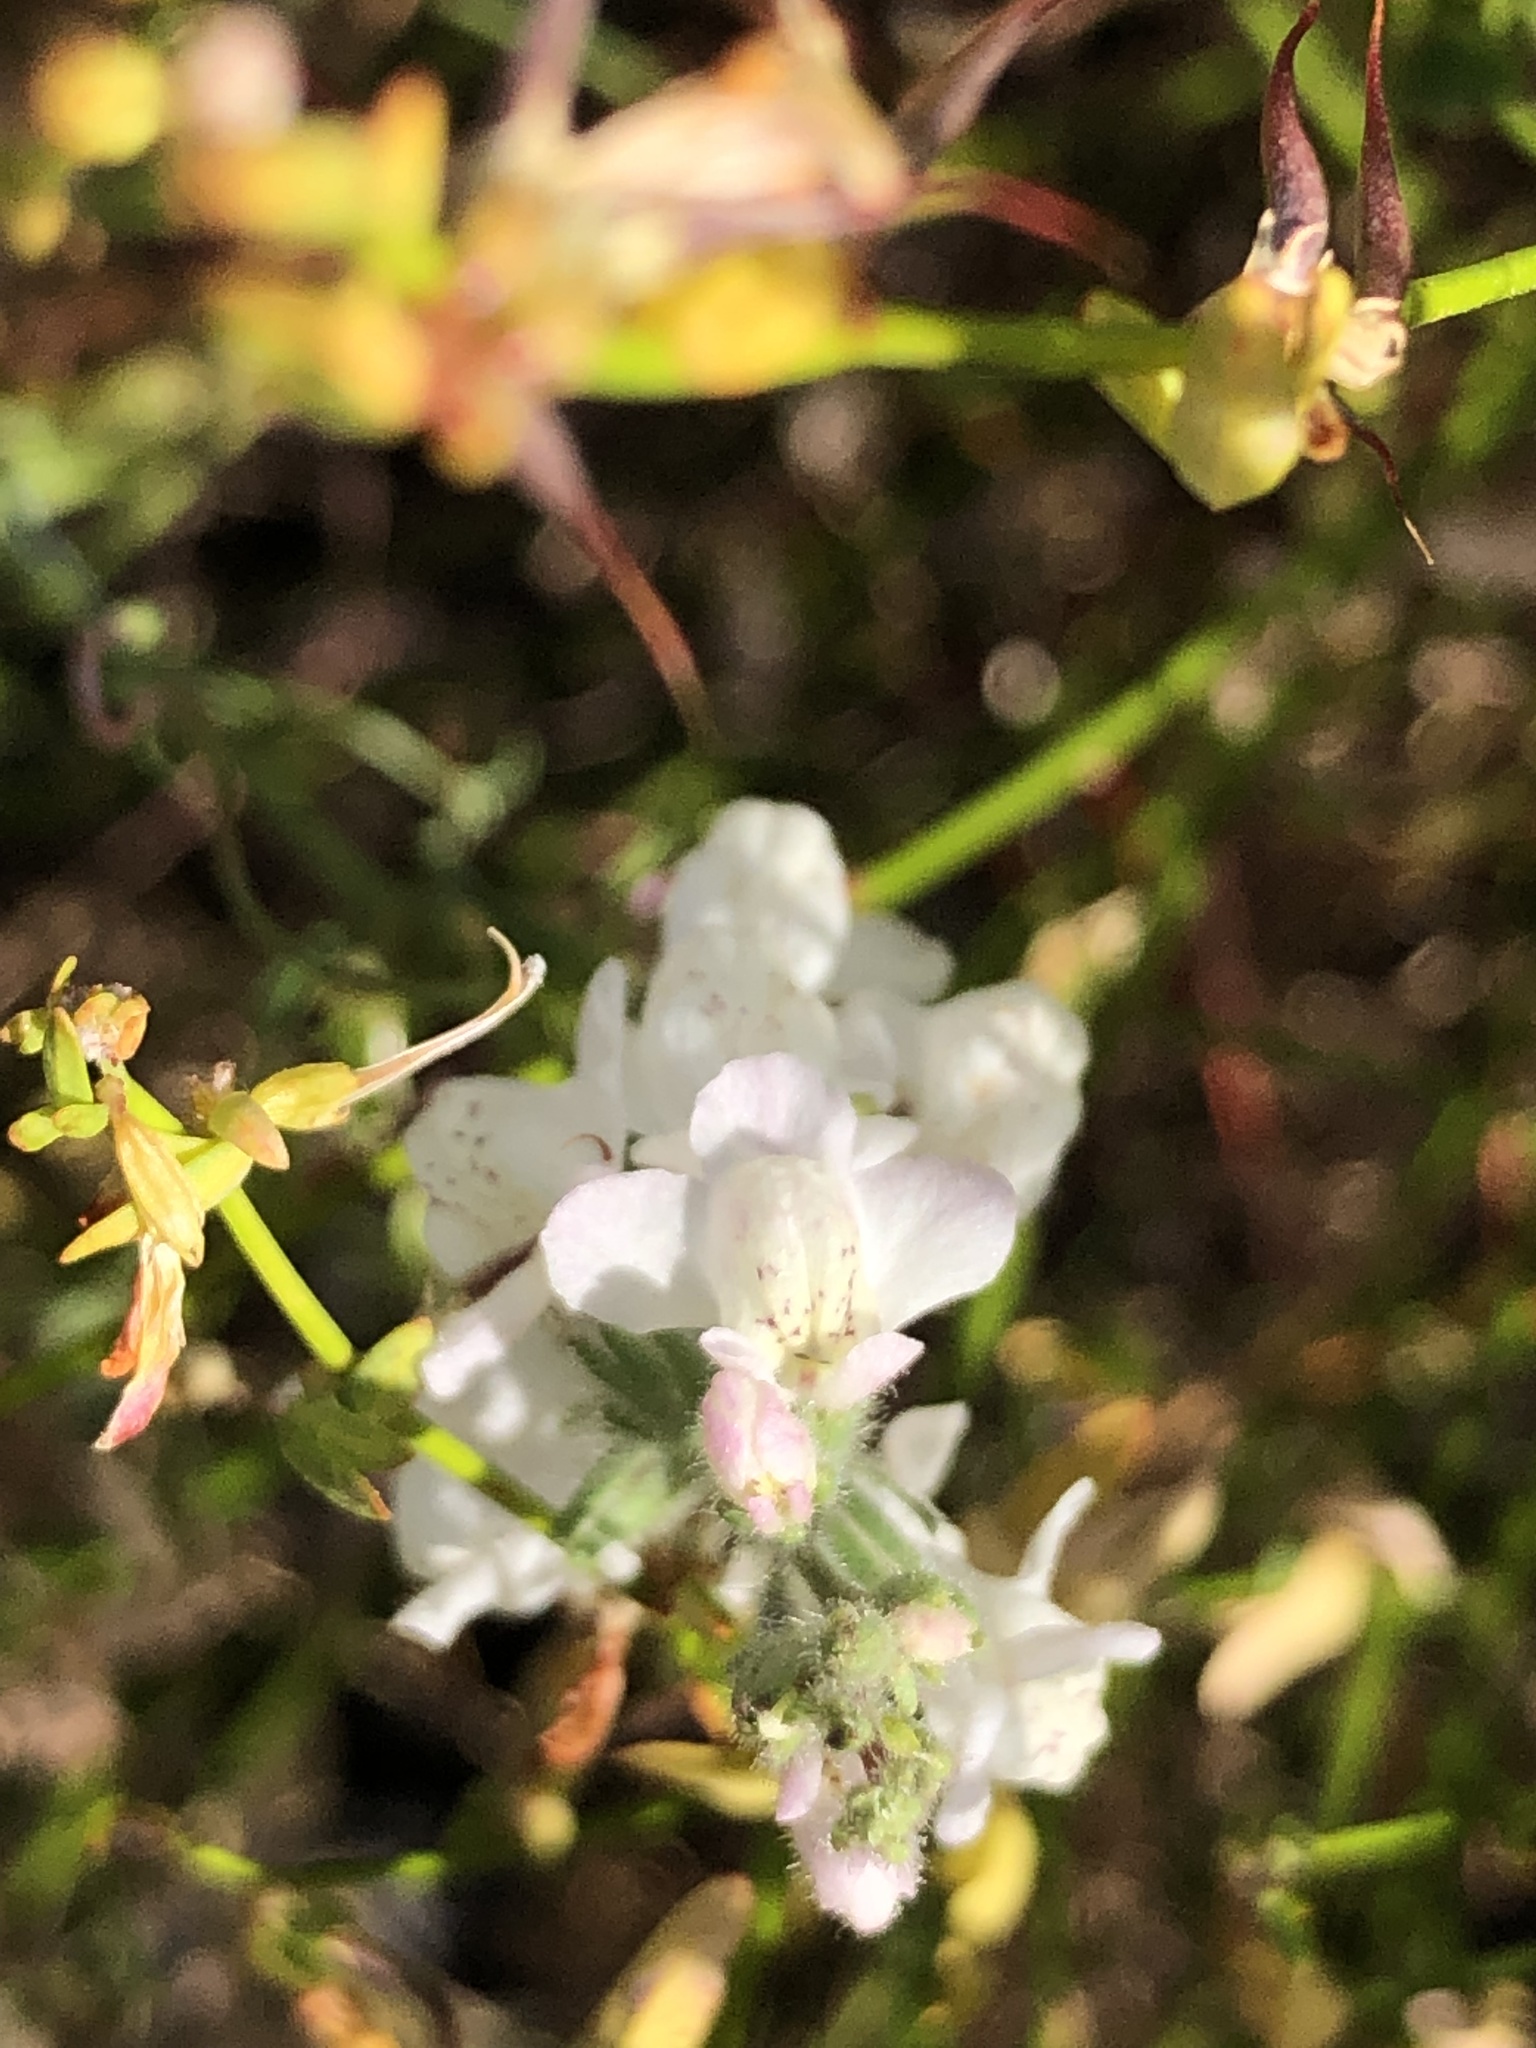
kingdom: Plantae
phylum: Tracheophyta
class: Magnoliopsida
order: Lamiales
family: Plantaginaceae
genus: Sairocarpus
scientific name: Sairocarpus coulterianus
